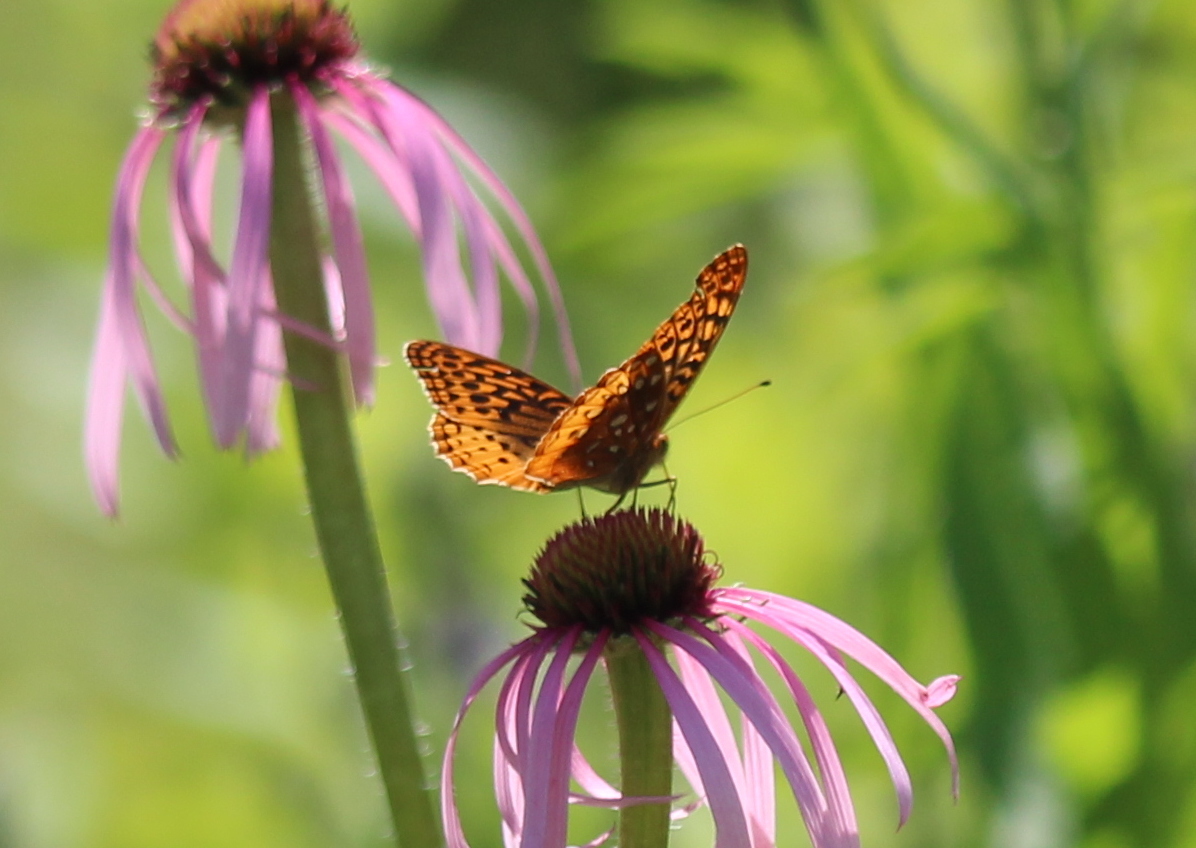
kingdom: Animalia
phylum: Arthropoda
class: Insecta
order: Lepidoptera
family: Nymphalidae
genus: Speyeria
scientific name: Speyeria cybele
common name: Great spangled fritillary
